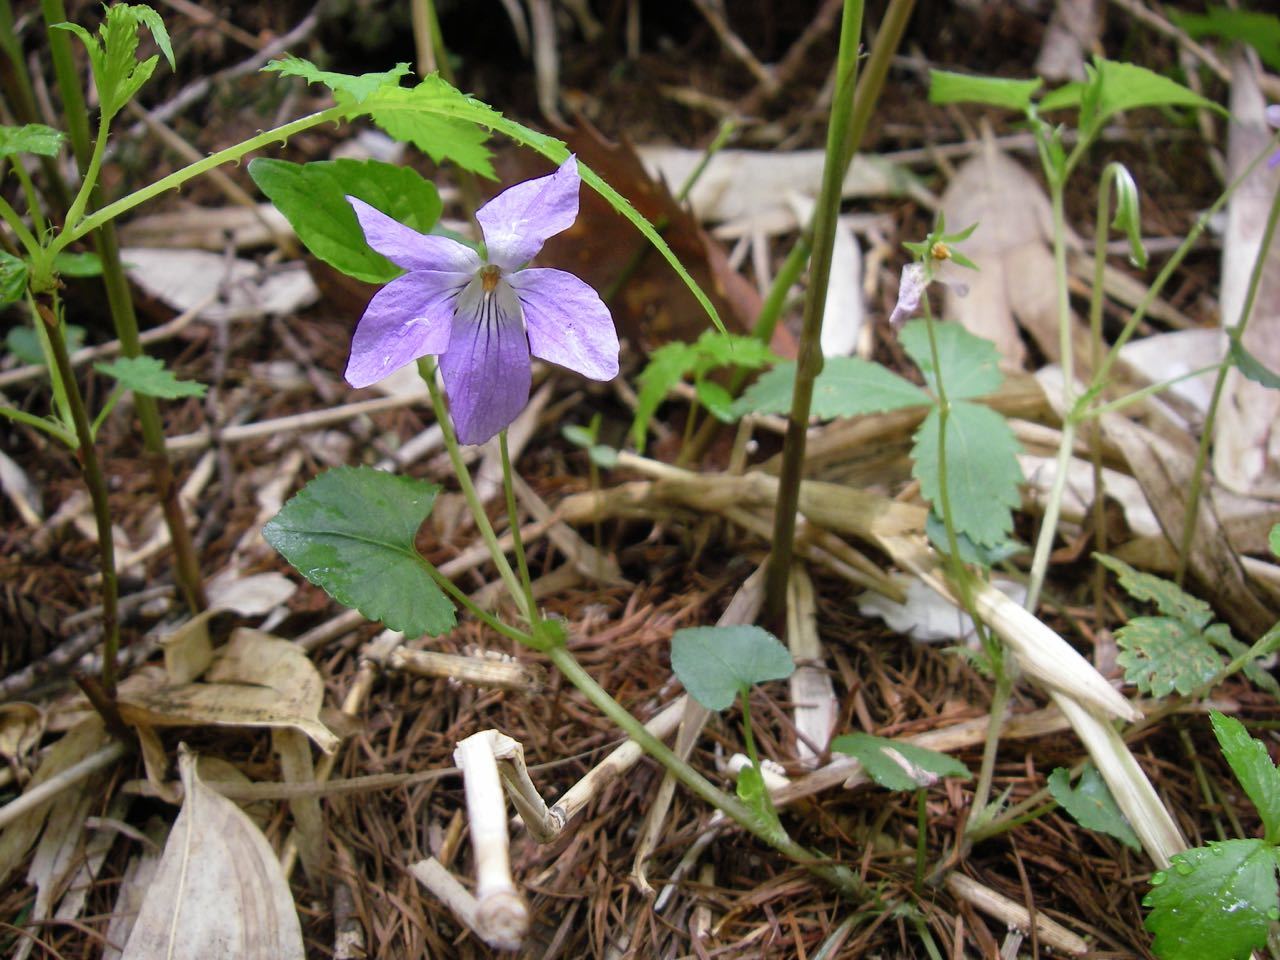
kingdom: Plantae
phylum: Tracheophyta
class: Magnoliopsida
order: Malpighiales
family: Violaceae
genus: Viola
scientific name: Viola grypoceras
